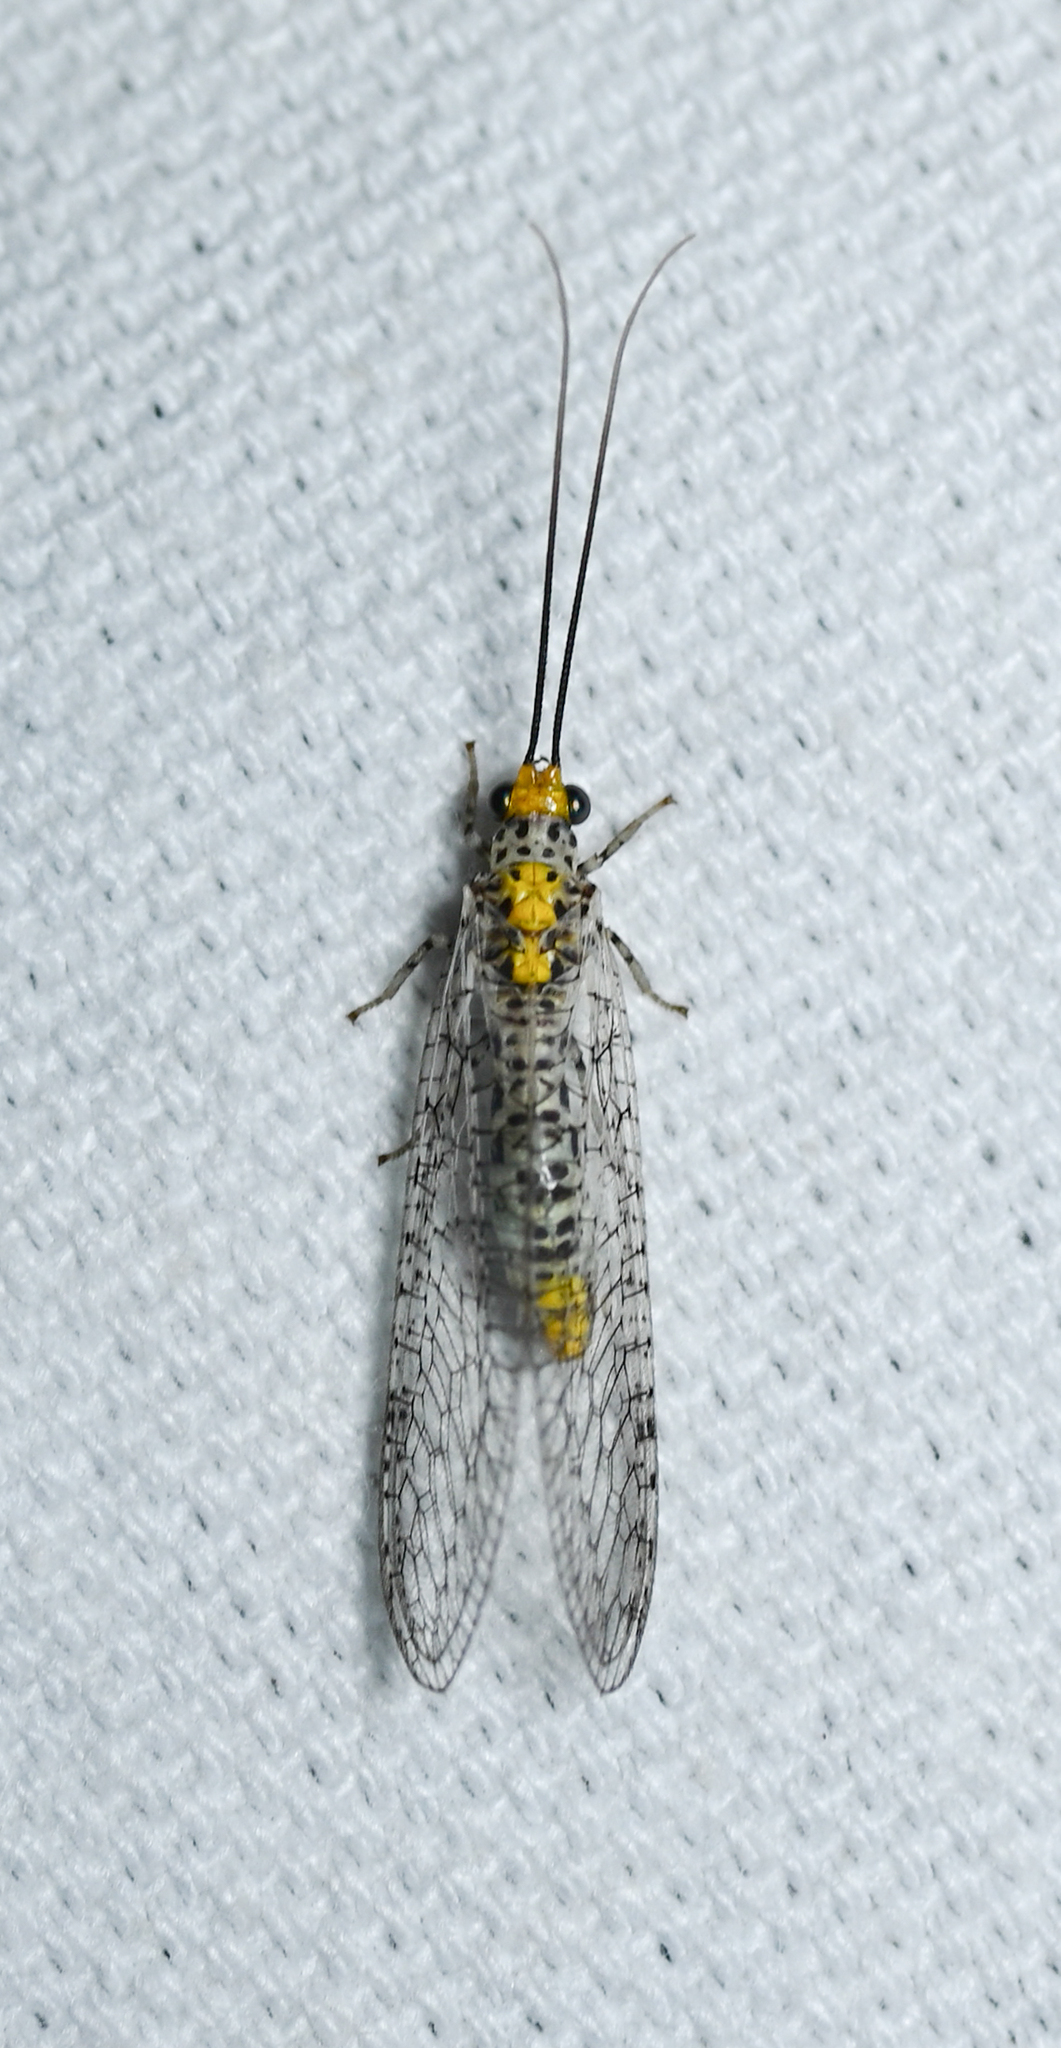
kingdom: Animalia
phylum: Arthropoda
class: Insecta
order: Neuroptera
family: Chrysopidae
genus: Abachrysa
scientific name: Abachrysa eureka
